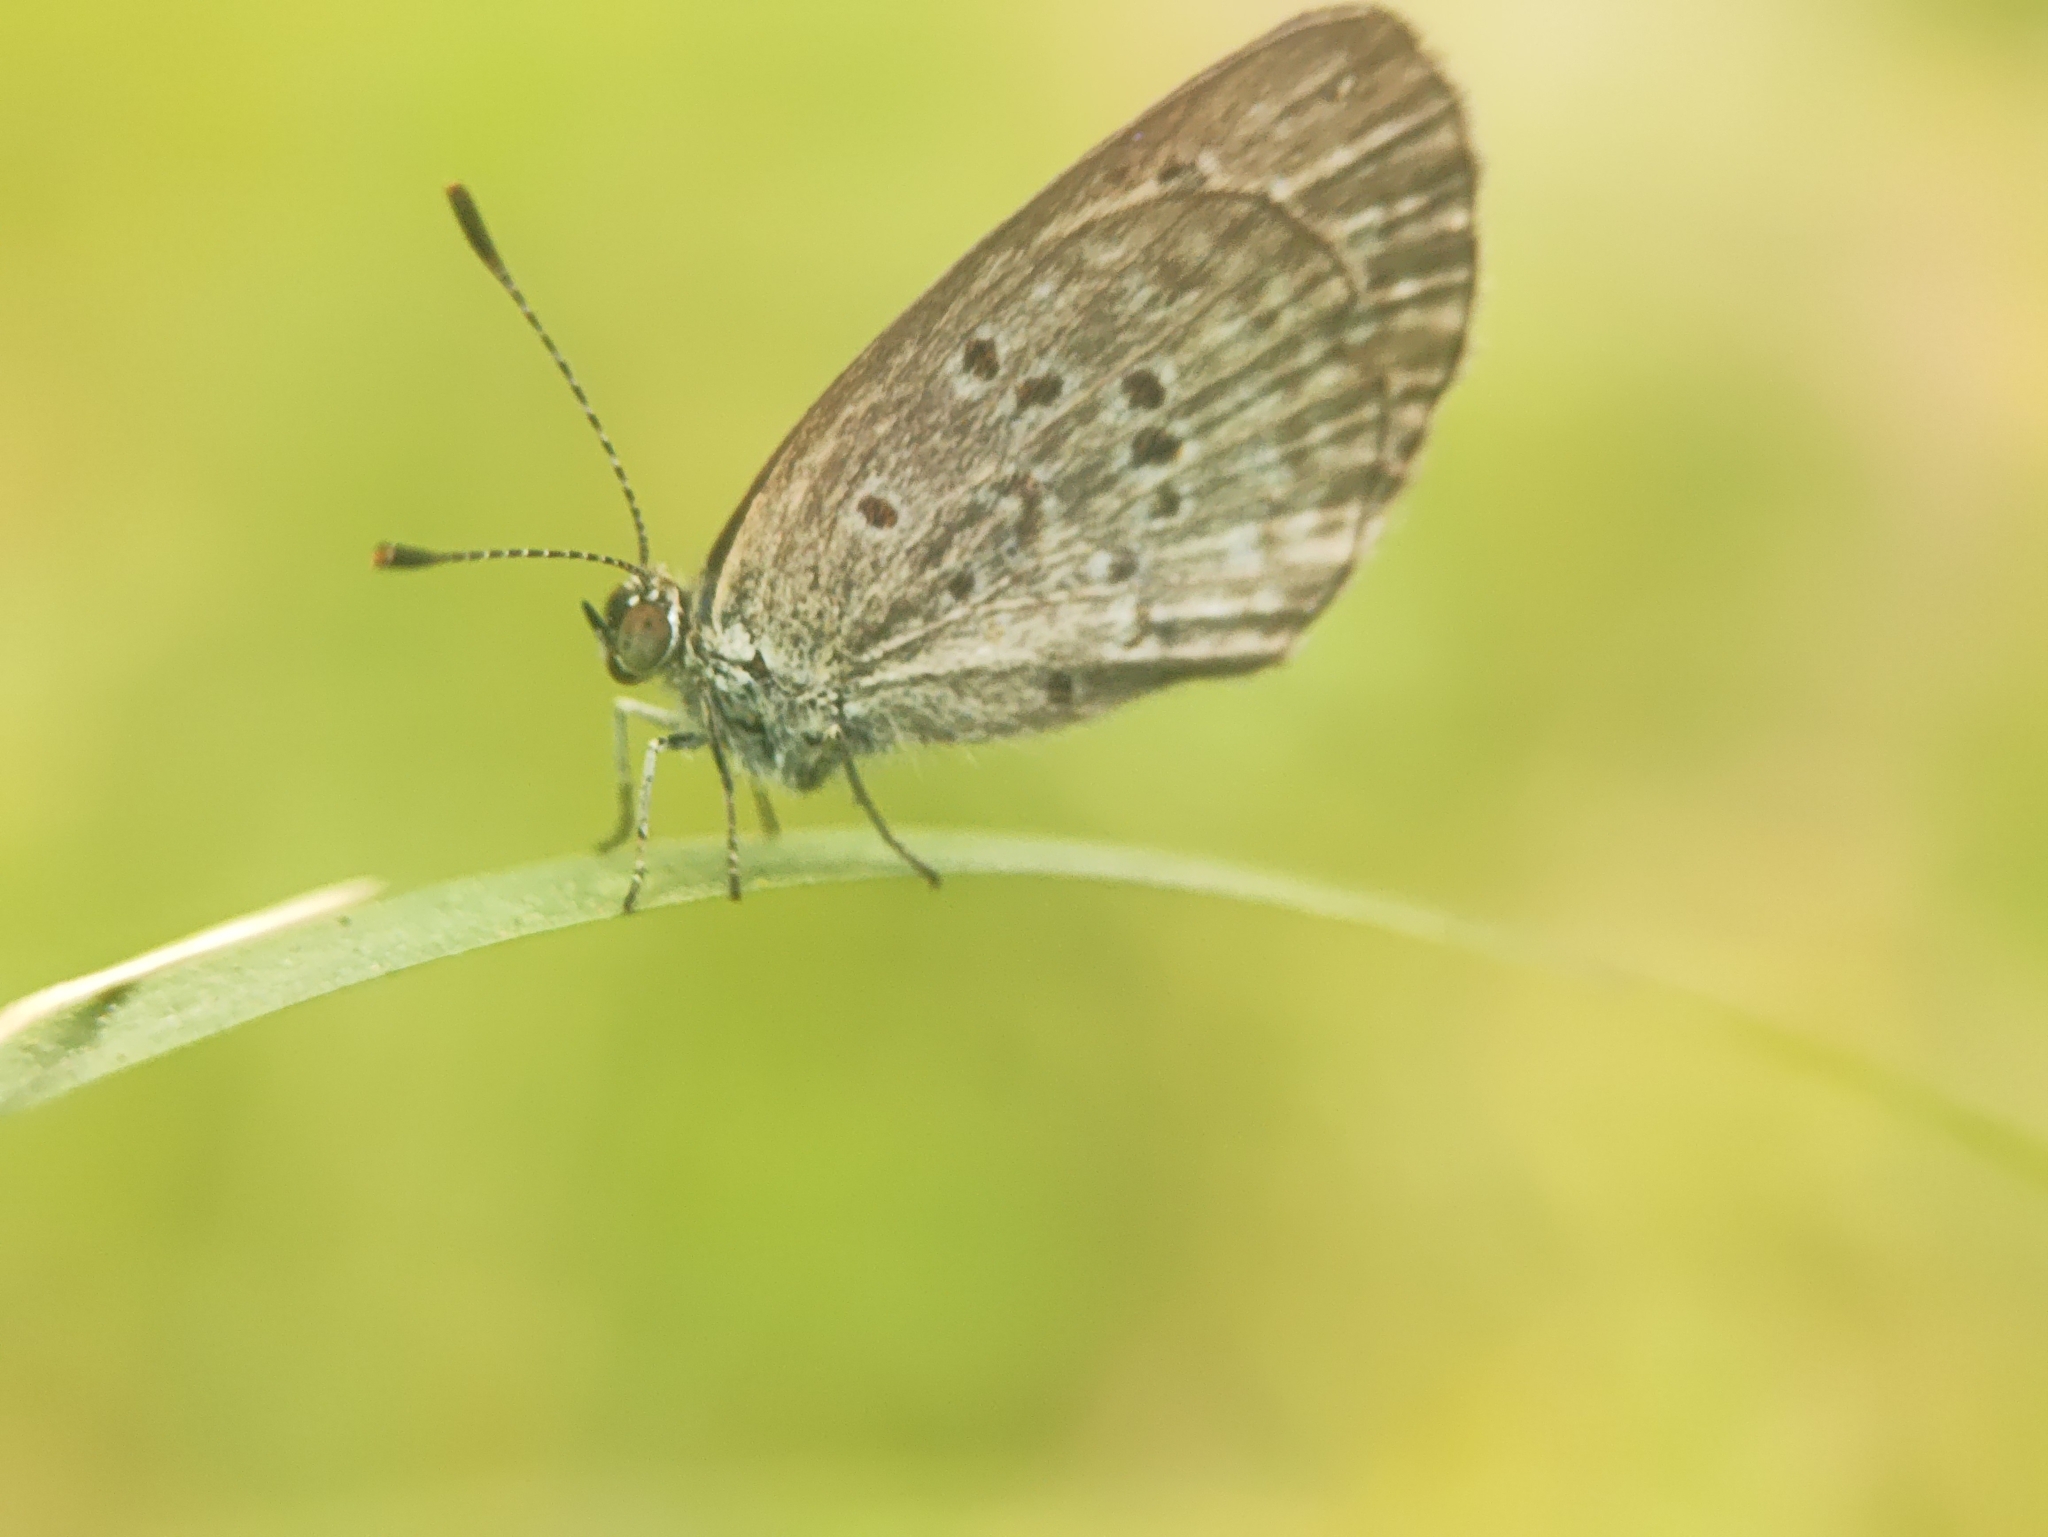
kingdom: Animalia
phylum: Arthropoda
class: Insecta
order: Lepidoptera
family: Lycaenidae
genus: Zizina
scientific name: Zizina otis
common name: Lesser grass blue
